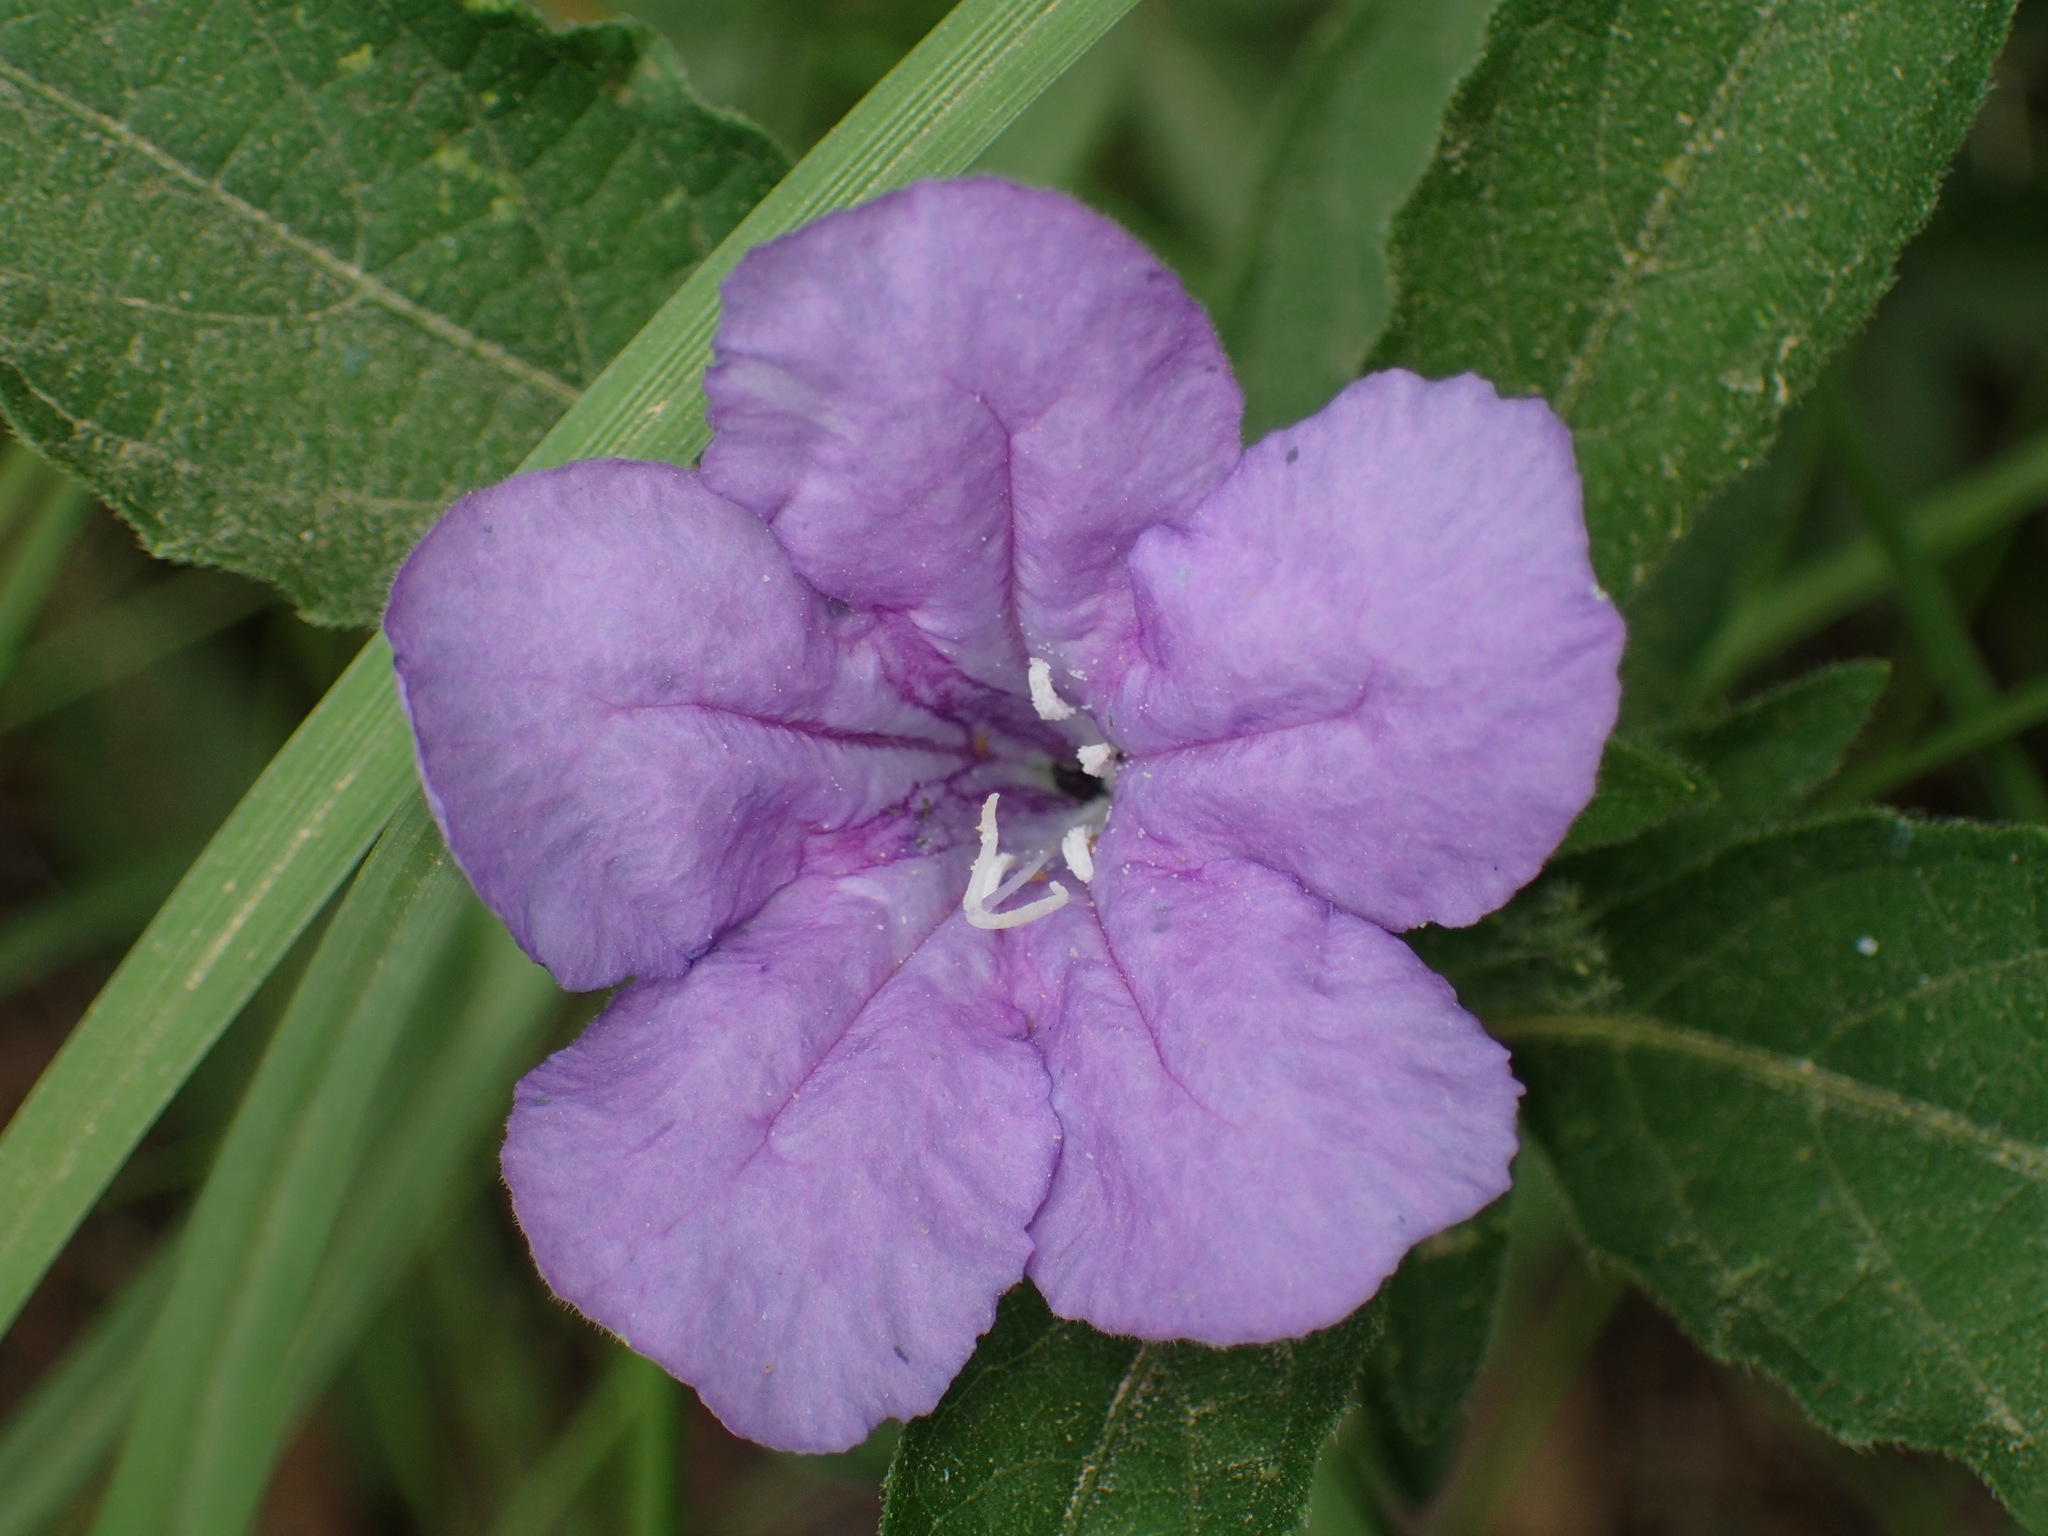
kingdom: Plantae
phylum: Tracheophyta
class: Magnoliopsida
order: Lamiales
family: Acanthaceae
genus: Ruellia
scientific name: Ruellia caroliniensis
